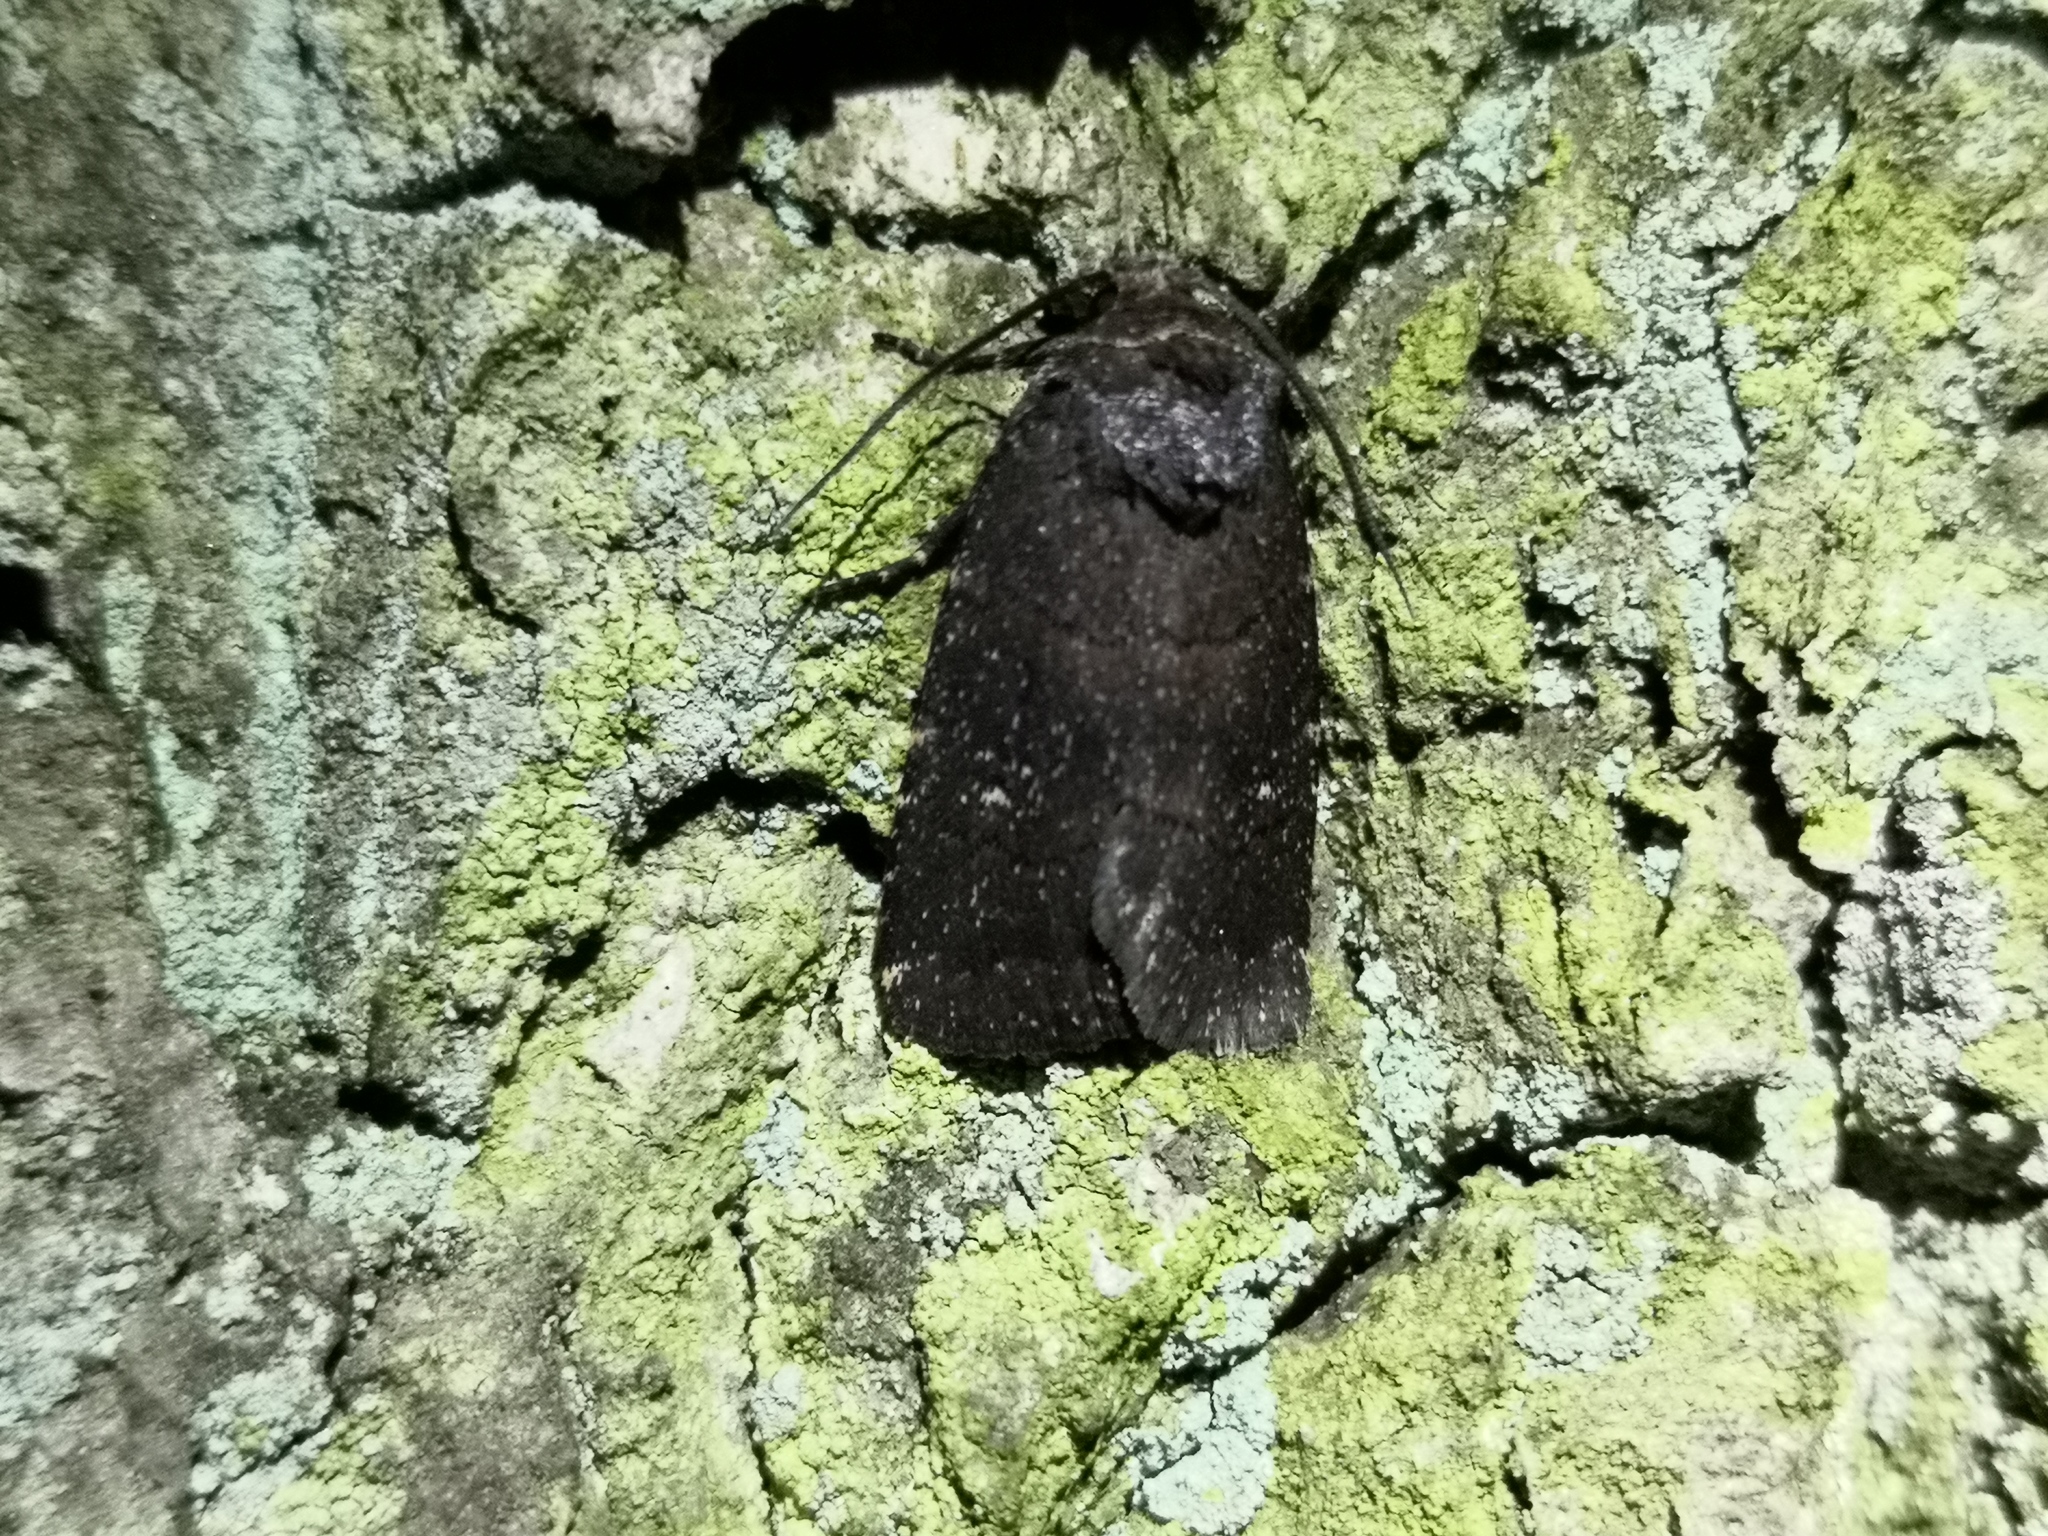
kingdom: Animalia
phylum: Arthropoda
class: Insecta
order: Lepidoptera
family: Noctuidae
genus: Charanyca
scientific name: Charanyca ferruginea
